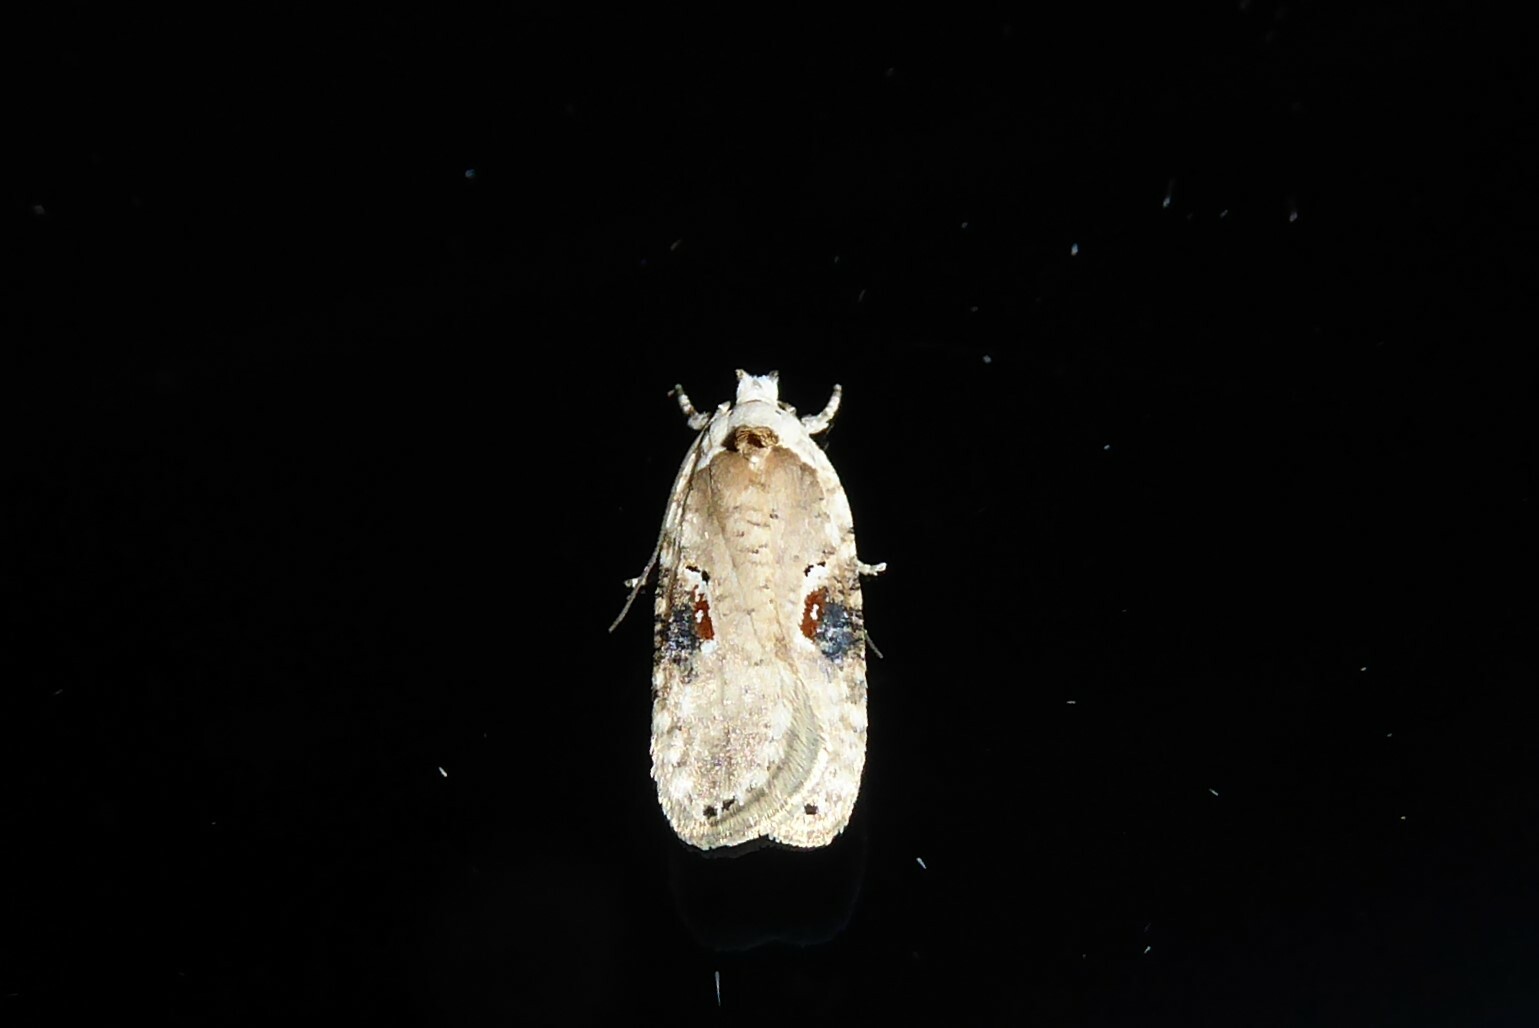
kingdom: Animalia
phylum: Arthropoda
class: Insecta
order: Lepidoptera
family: Depressariidae
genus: Agonopterix
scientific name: Agonopterix alstroemeriana
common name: Moth
